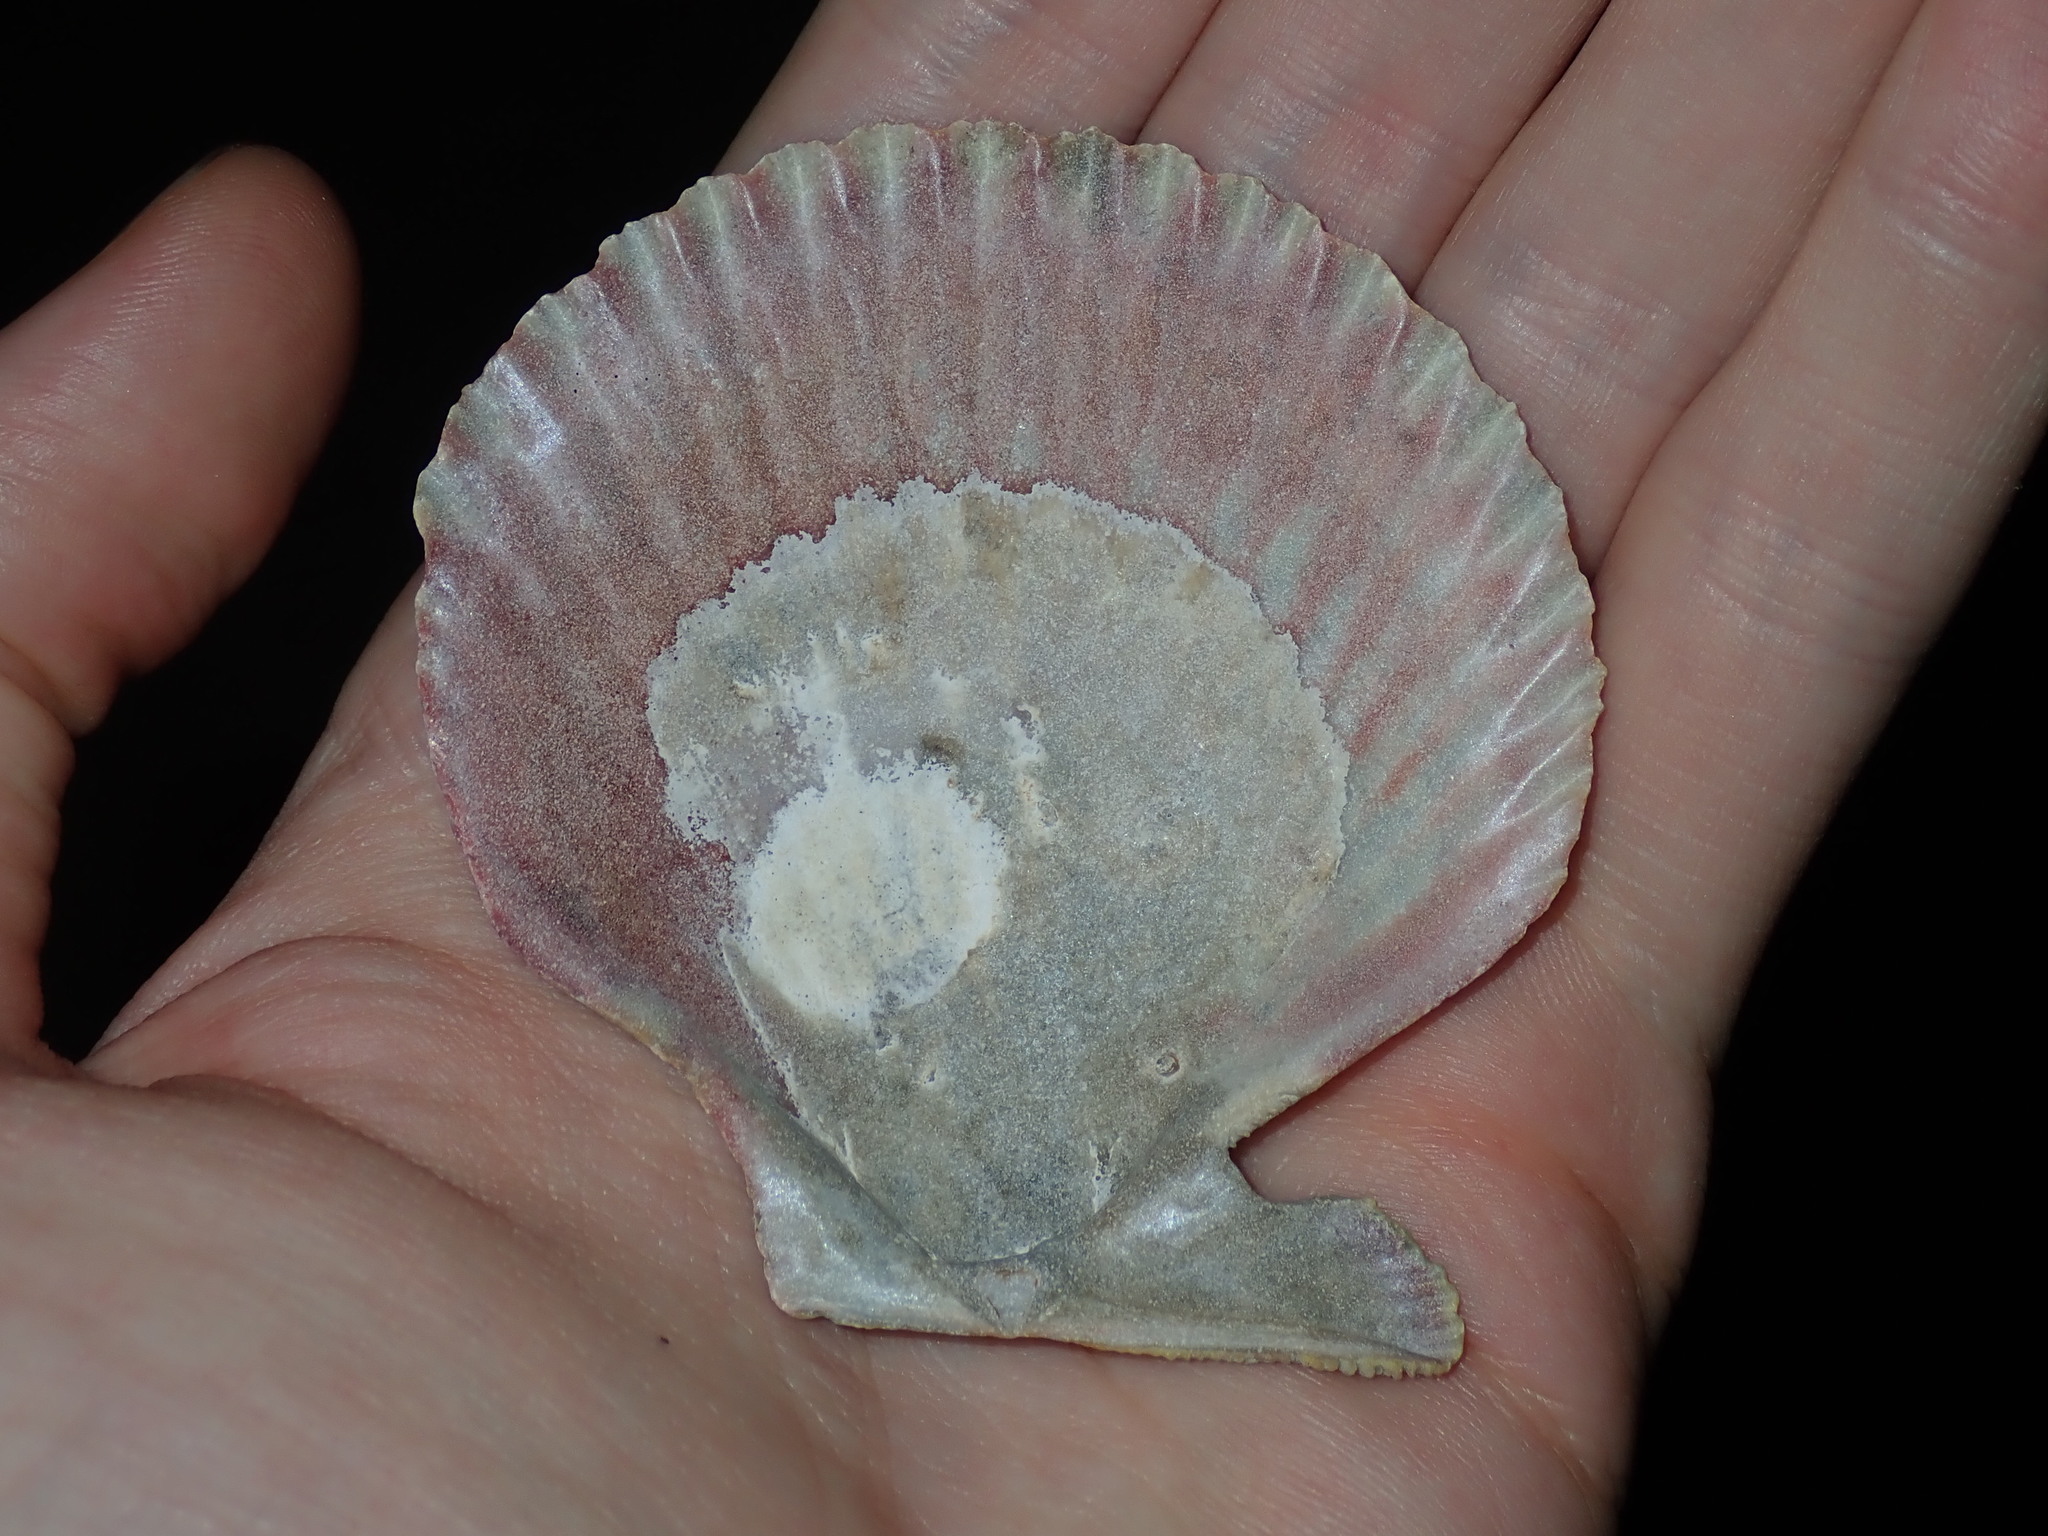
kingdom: Animalia
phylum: Mollusca
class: Bivalvia
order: Pectinida
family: Pectinidae
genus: Mimachlamys
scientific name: Mimachlamys asperrima
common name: Austral scallop
